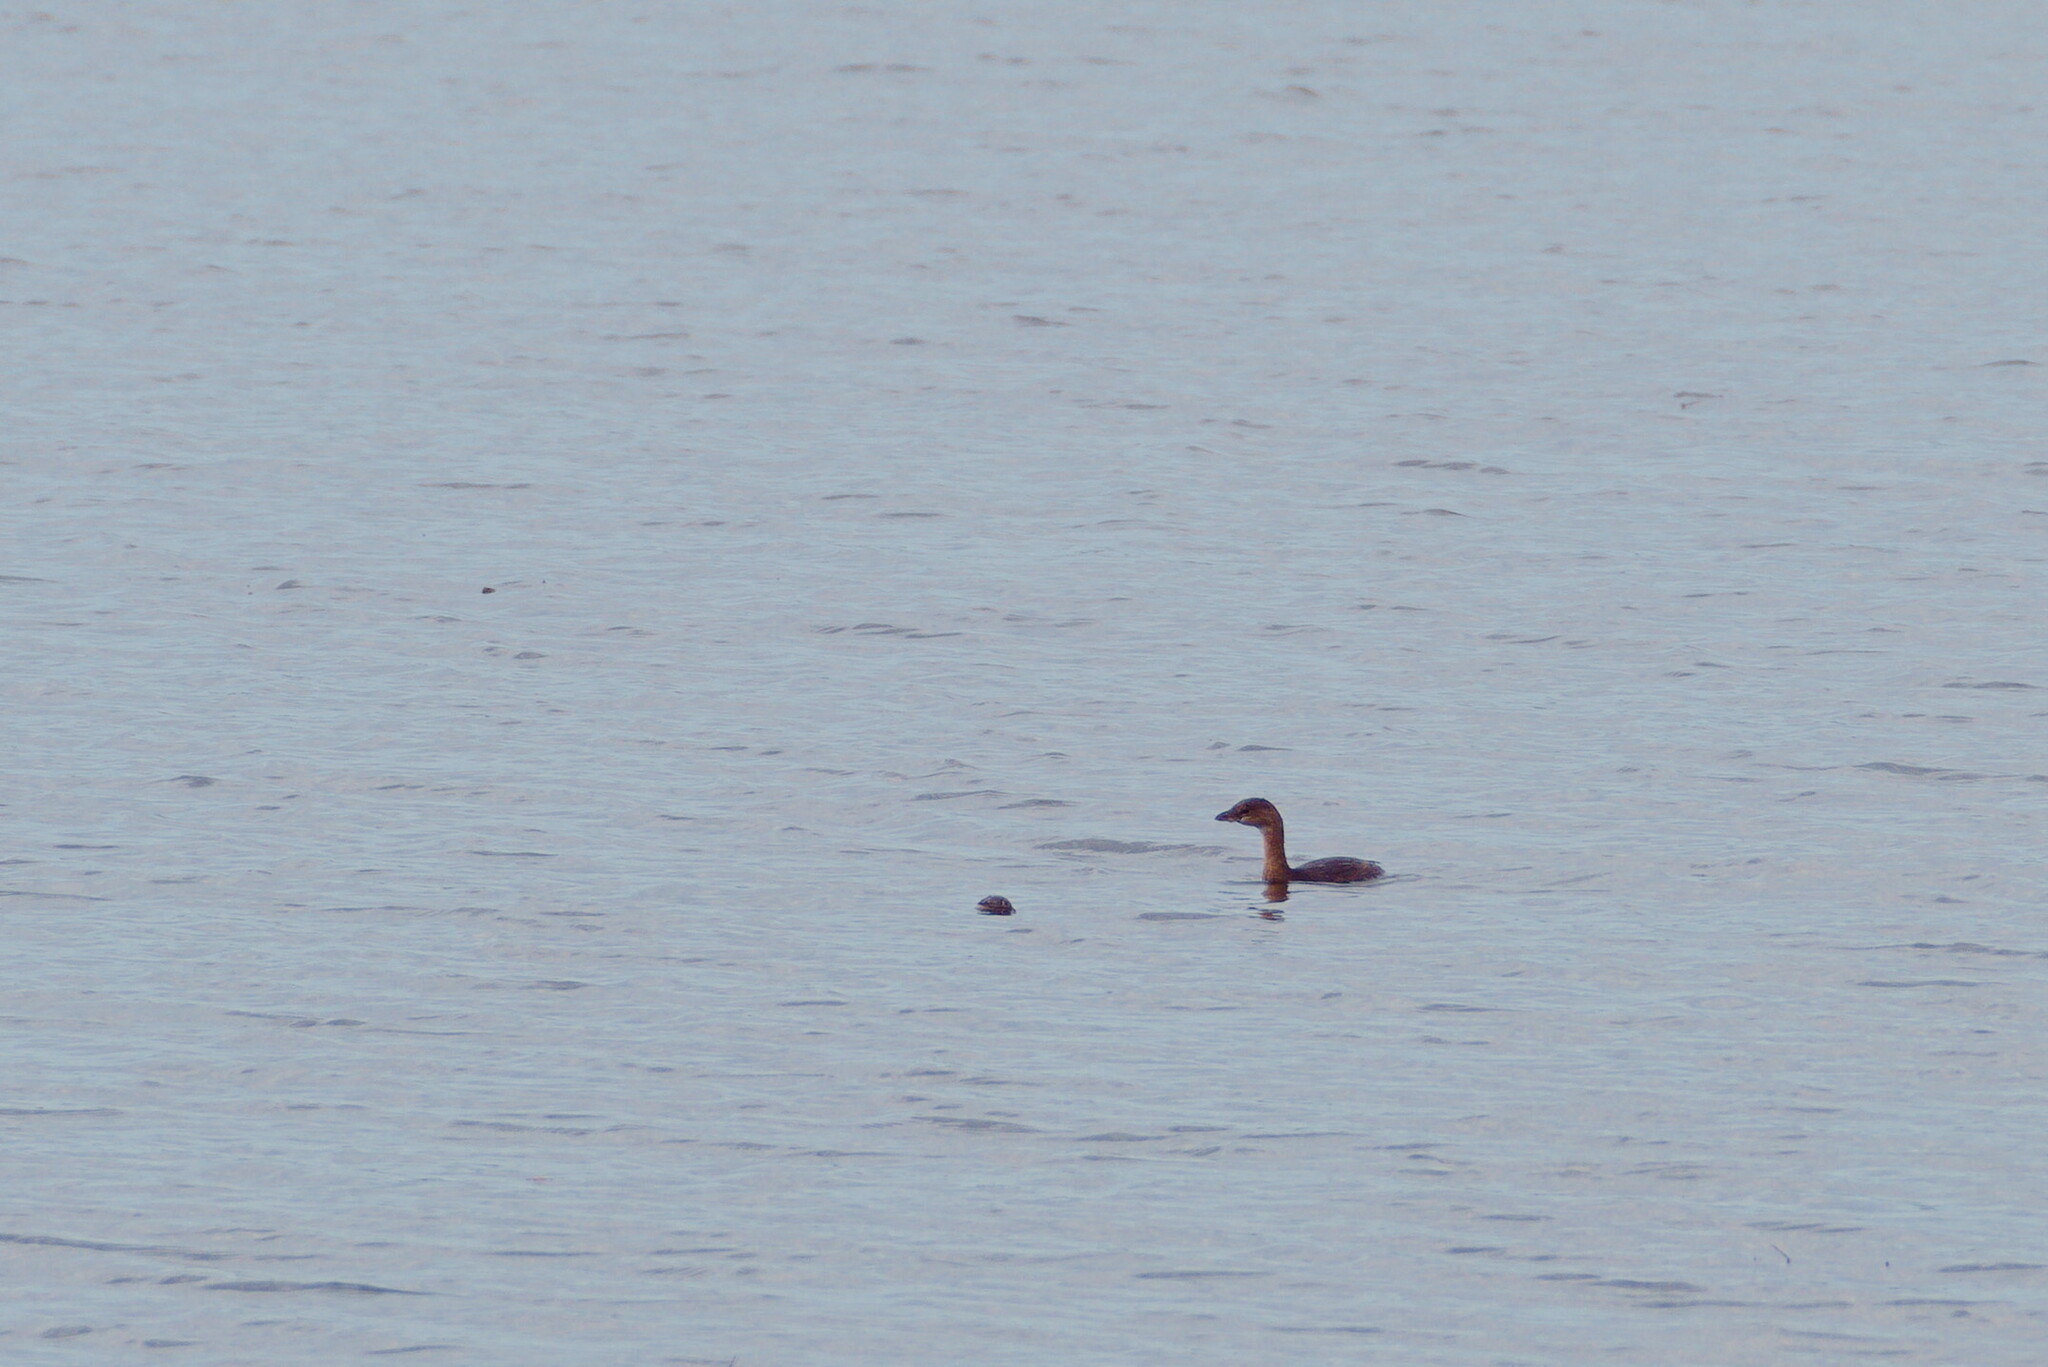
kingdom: Animalia
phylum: Chordata
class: Aves
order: Podicipediformes
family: Podicipedidae
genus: Podilymbus
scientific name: Podilymbus podiceps
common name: Pied-billed grebe
